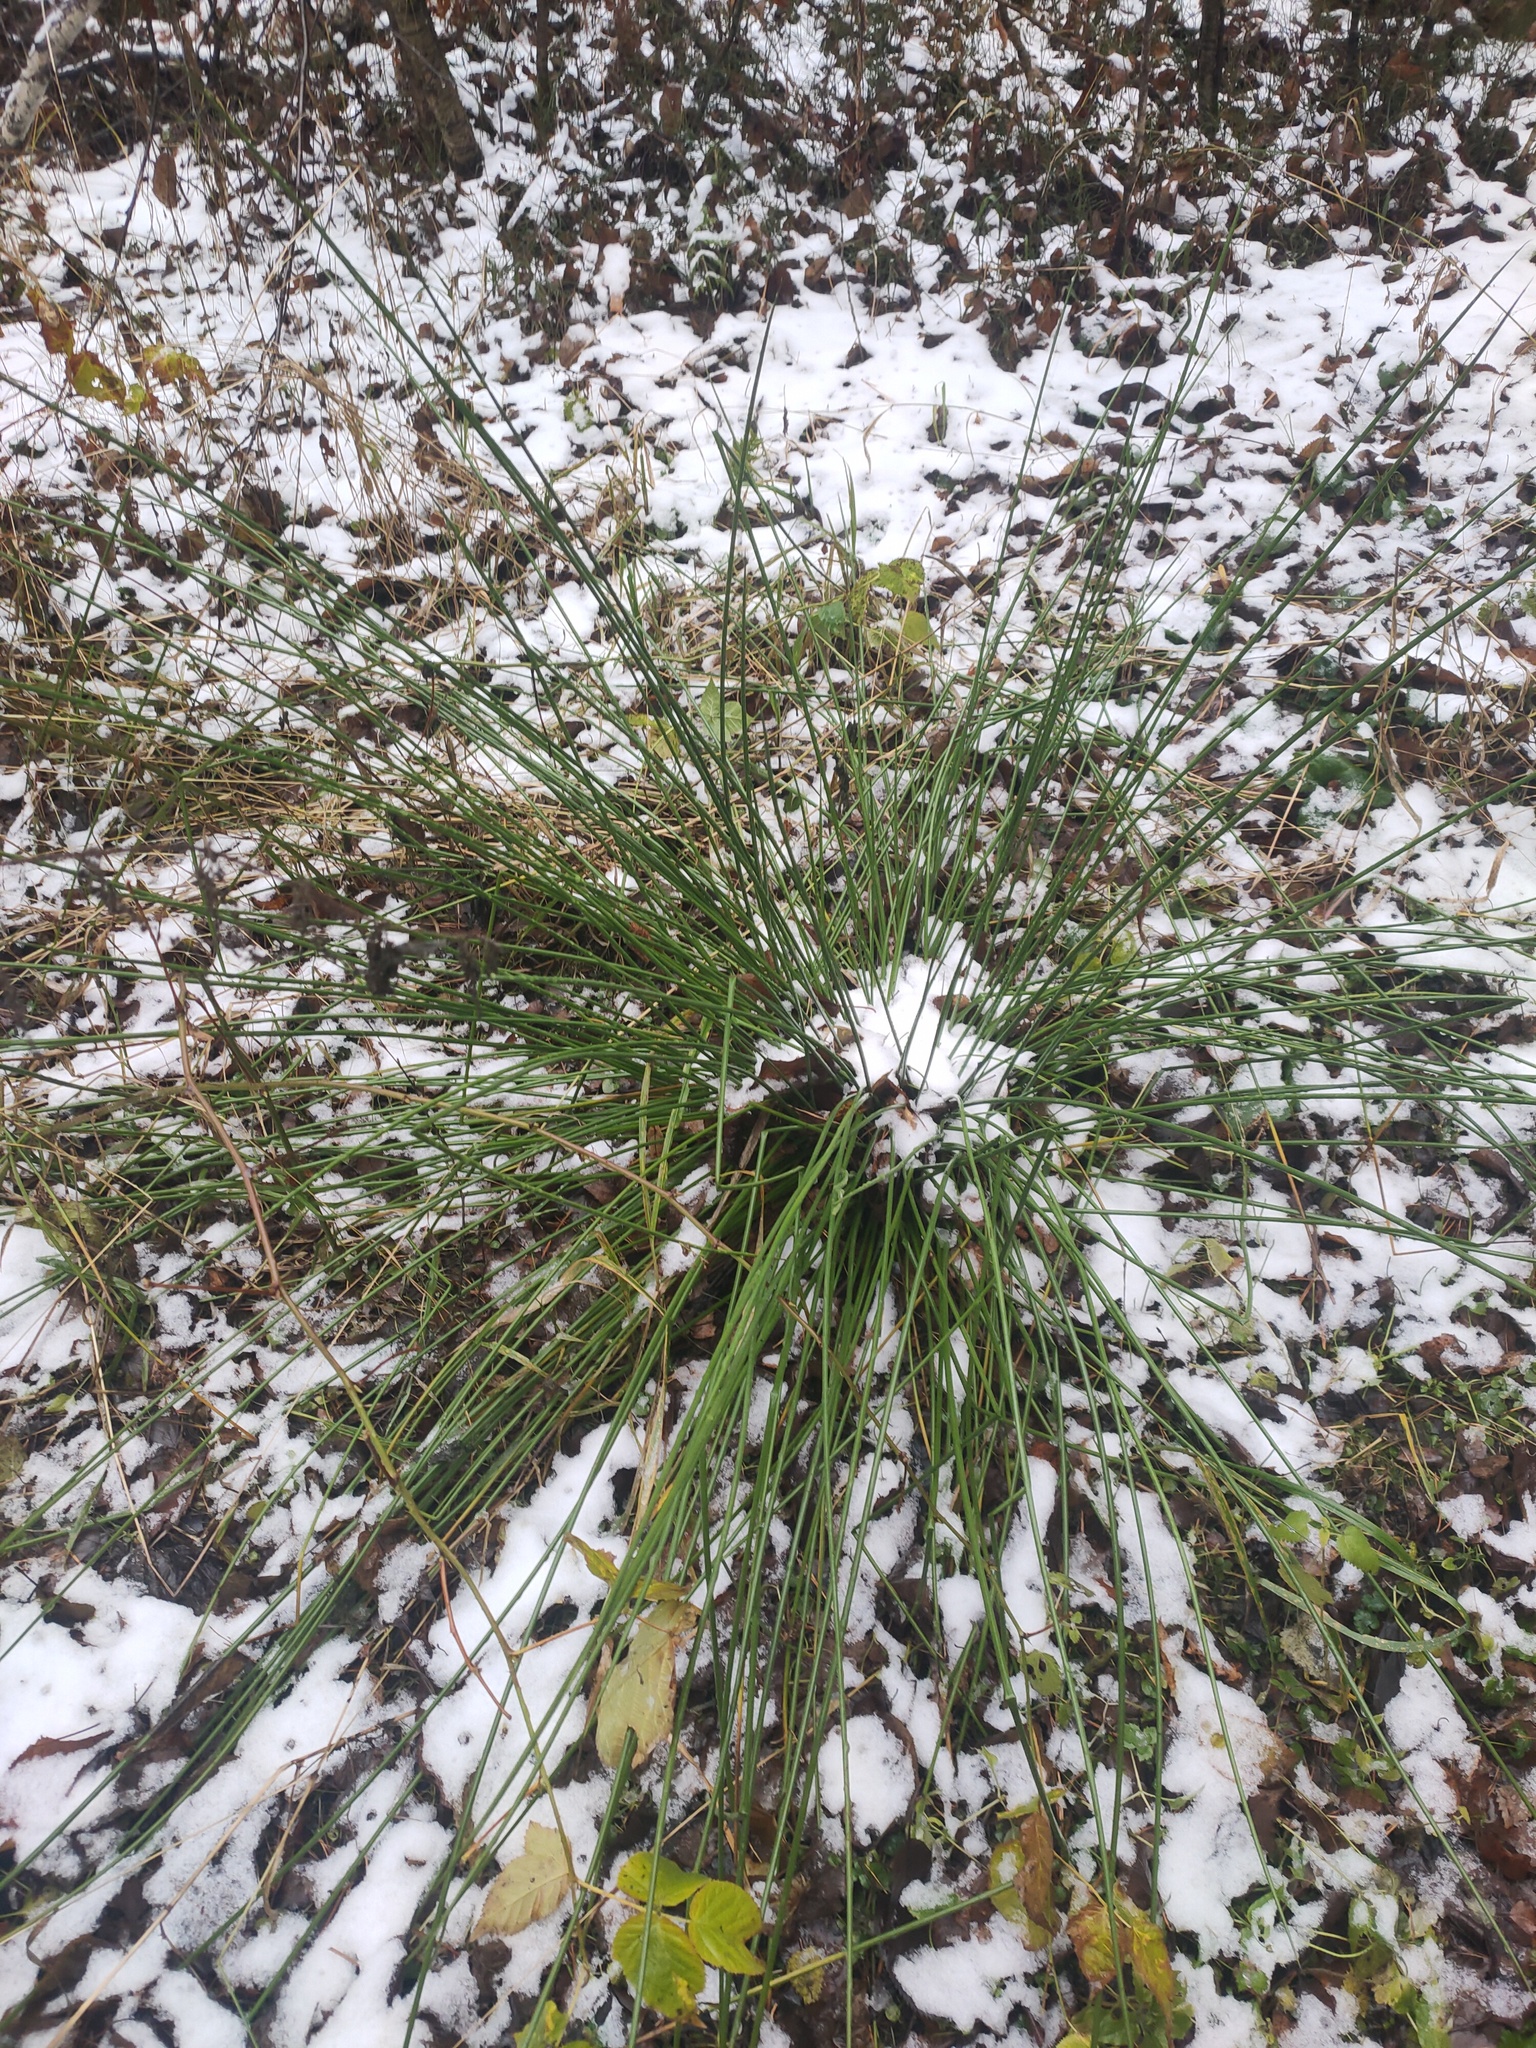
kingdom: Plantae
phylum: Tracheophyta
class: Liliopsida
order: Poales
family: Juncaceae
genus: Juncus
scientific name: Juncus effusus
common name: Soft rush
